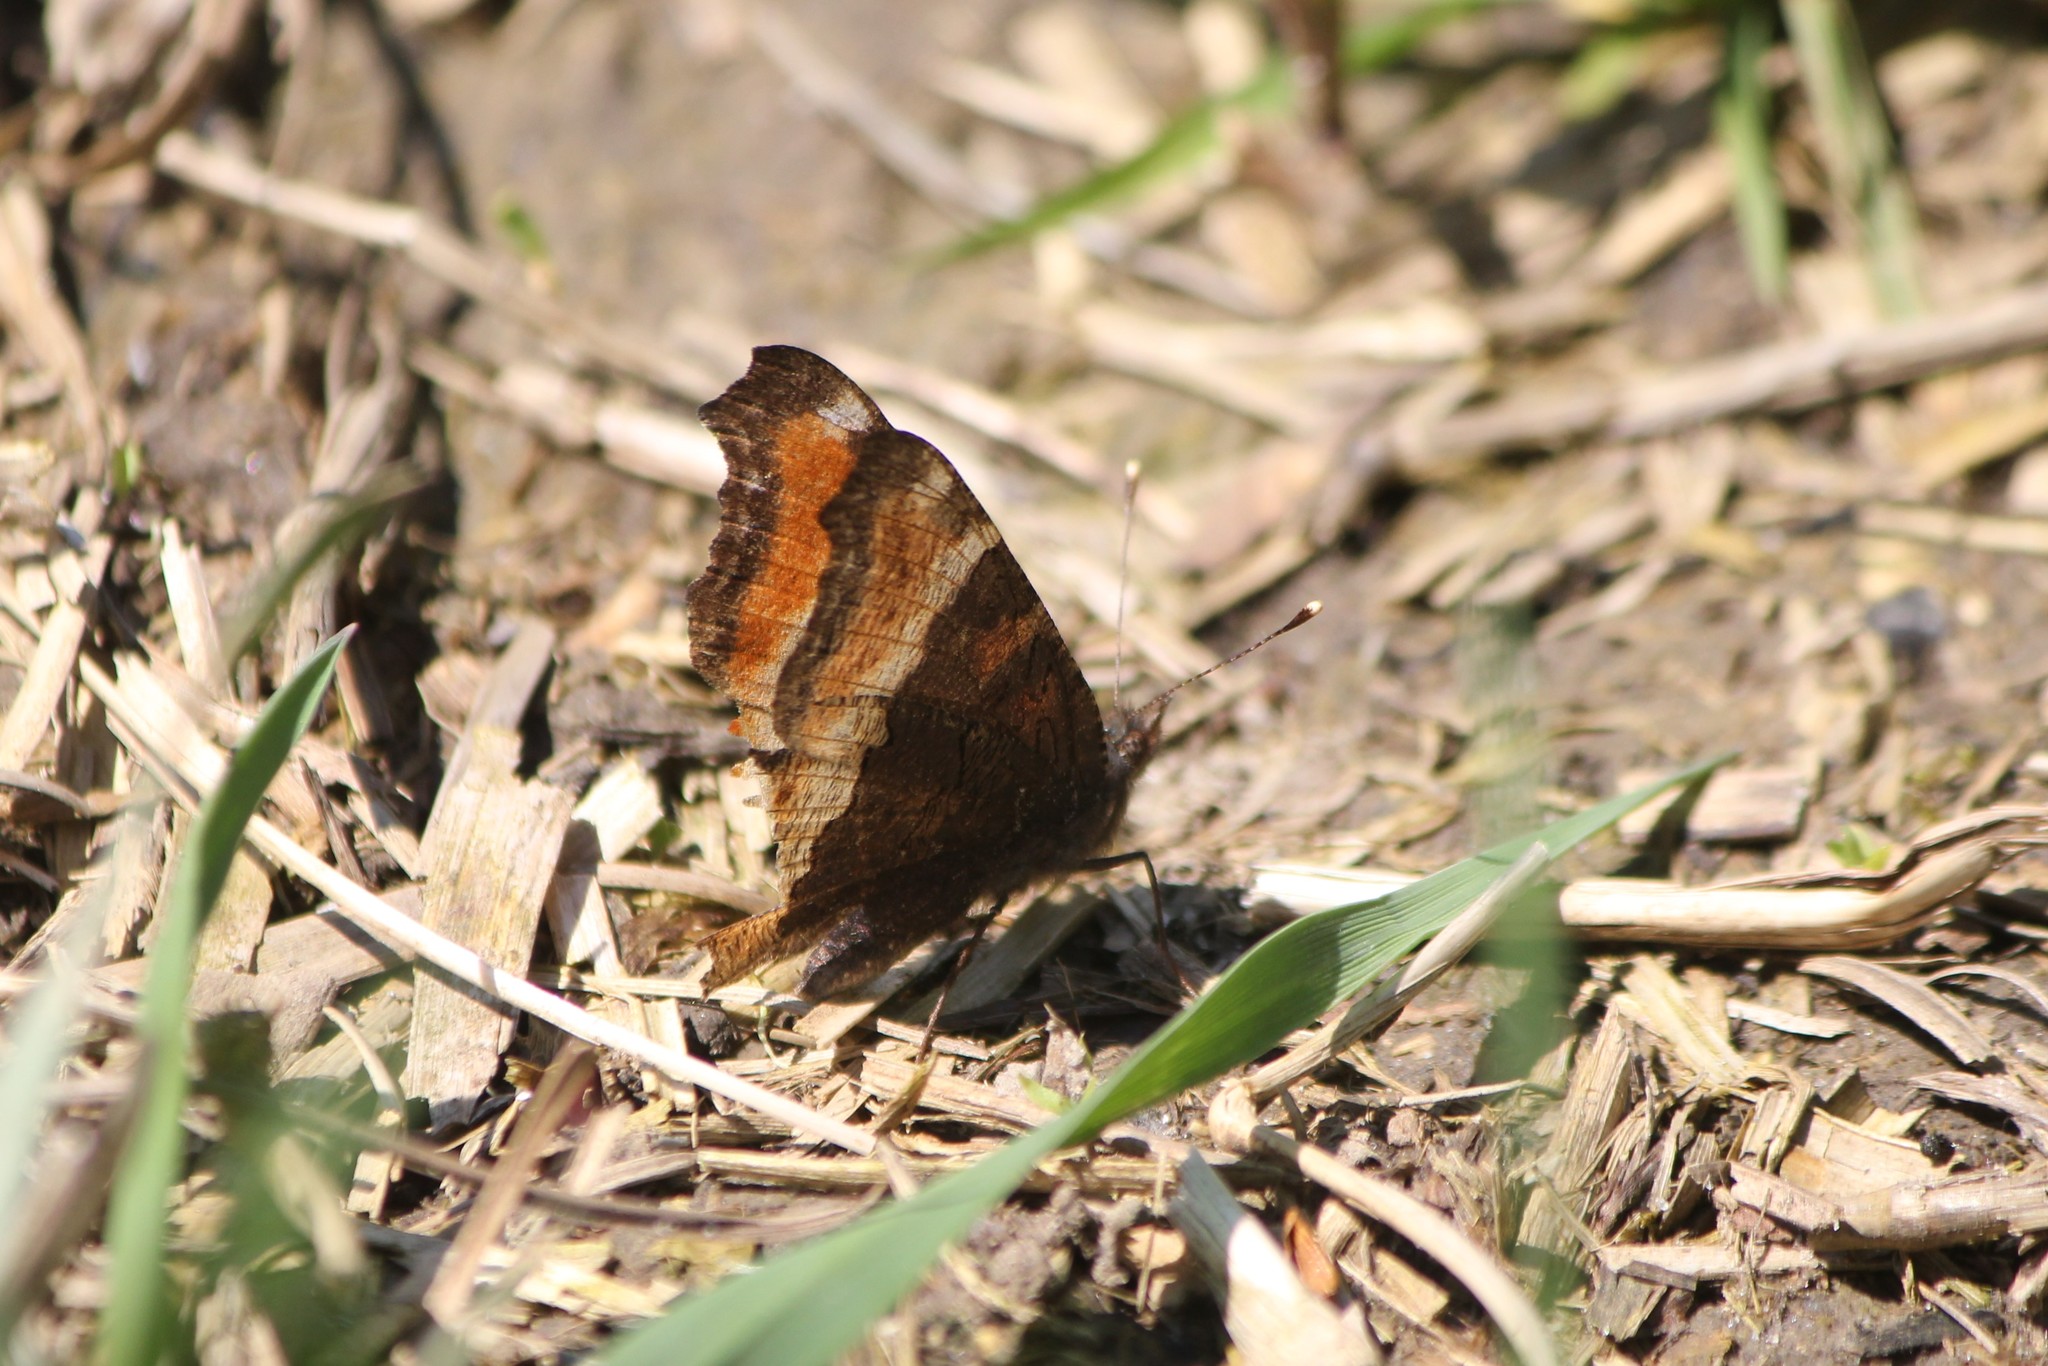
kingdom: Animalia
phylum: Arthropoda
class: Insecta
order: Lepidoptera
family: Nymphalidae
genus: Aglais
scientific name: Aglais milberti
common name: Milbert's tortoiseshell
